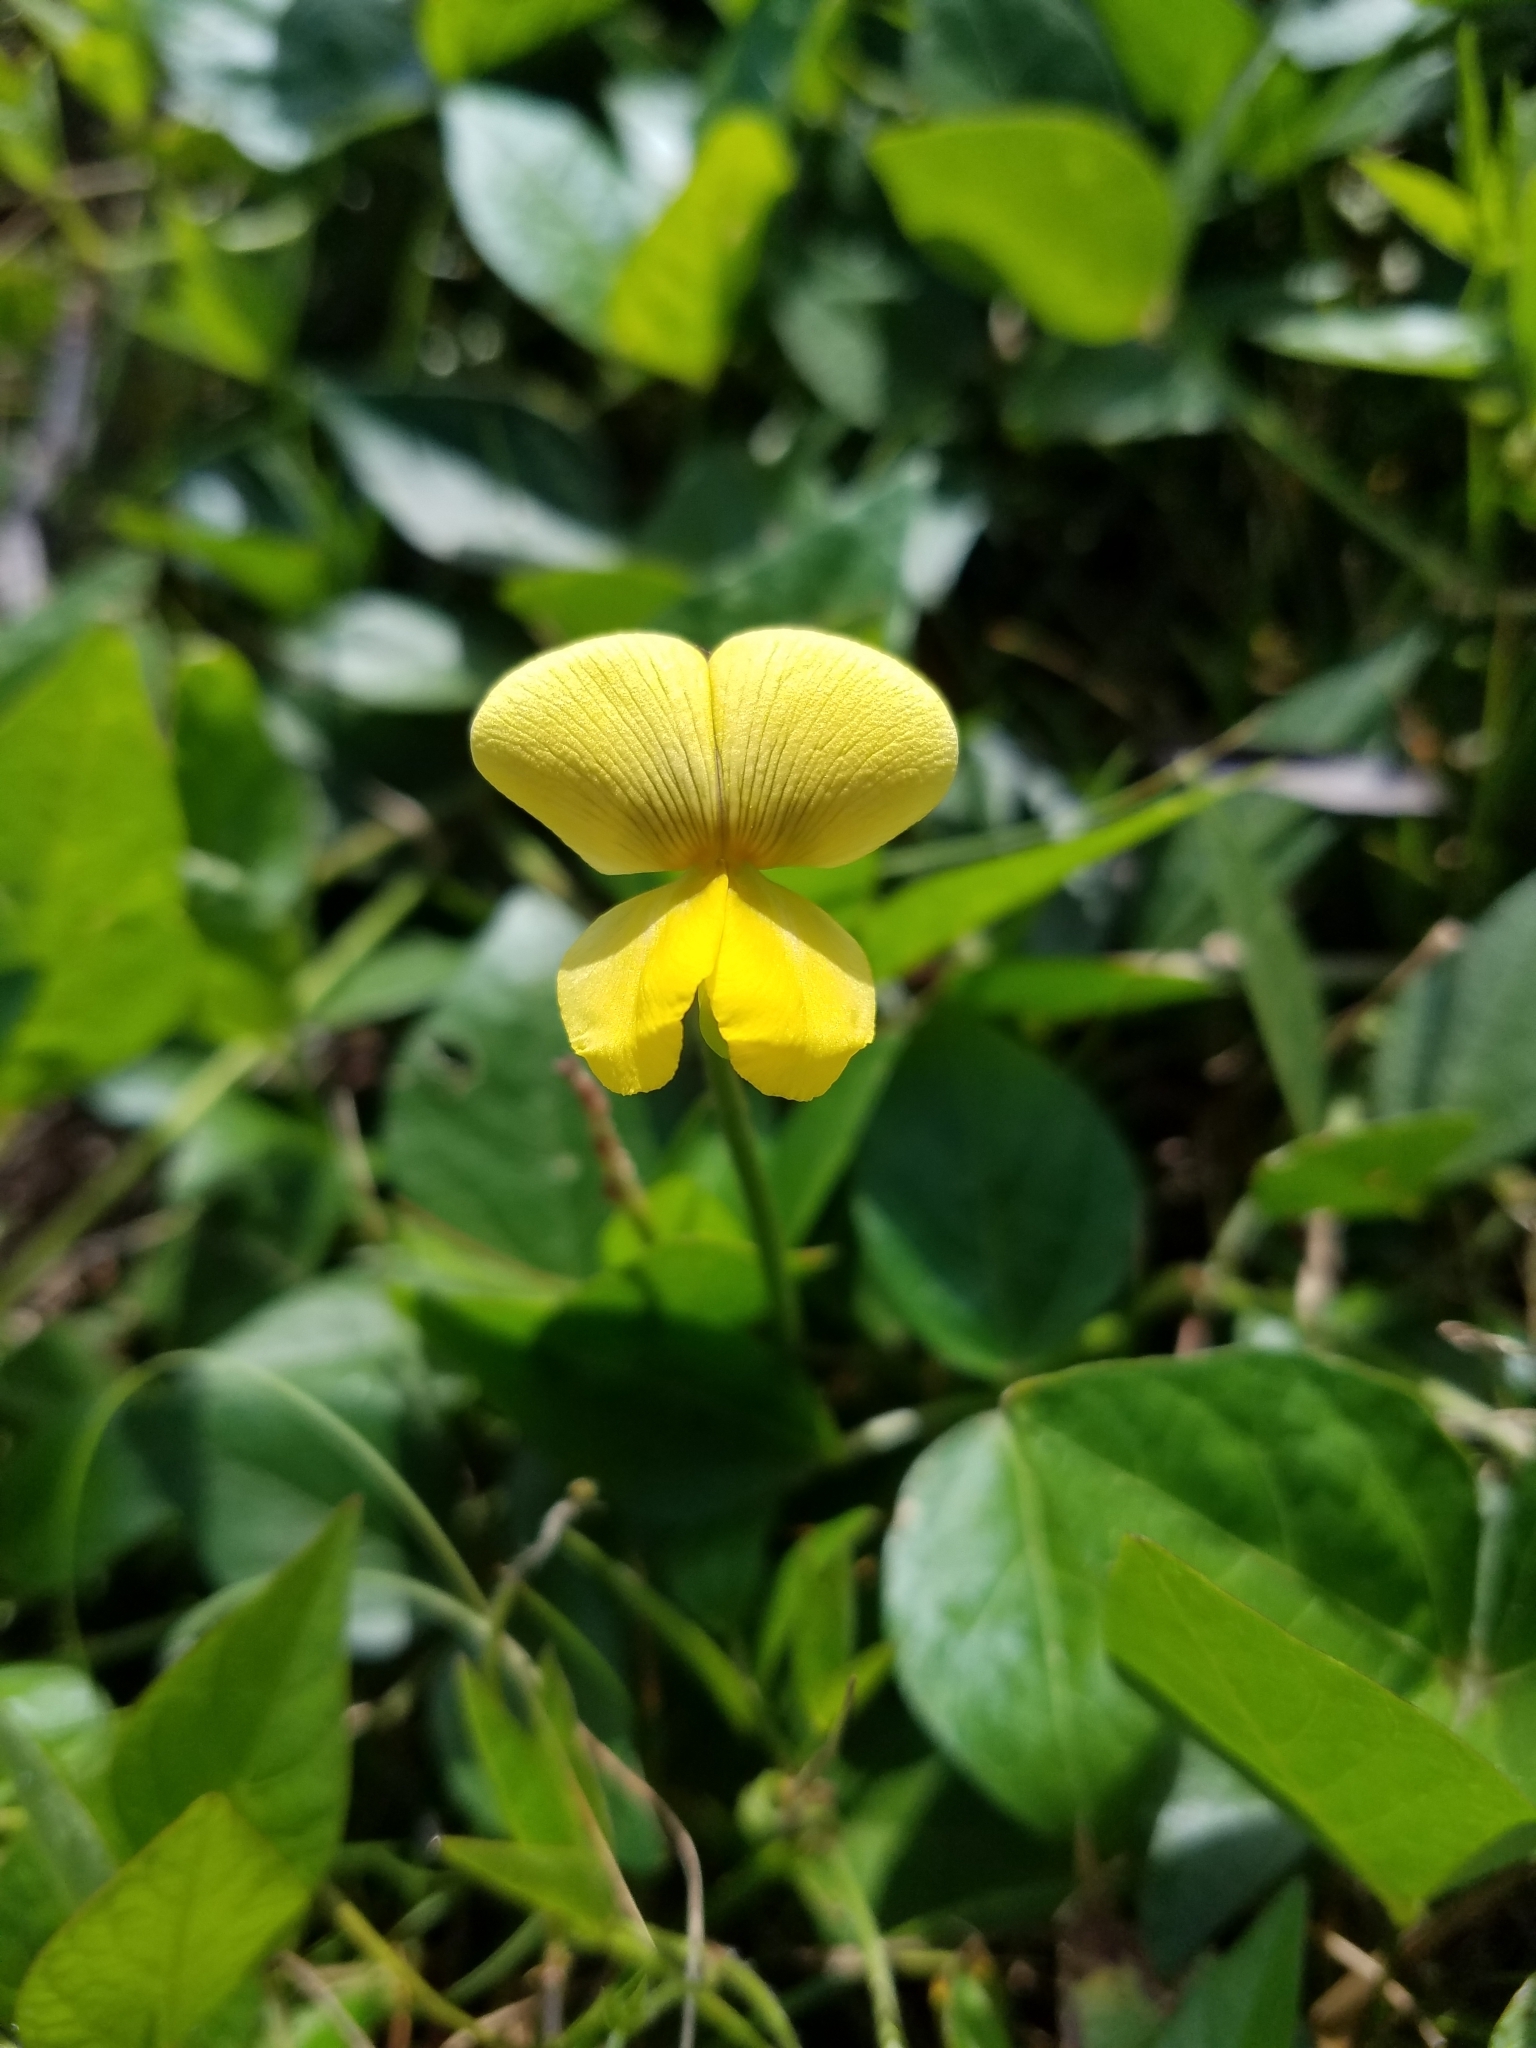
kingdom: Plantae
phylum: Tracheophyta
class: Magnoliopsida
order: Fabales
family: Fabaceae
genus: Vigna
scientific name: Vigna luteola
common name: Hairypod cowpea
